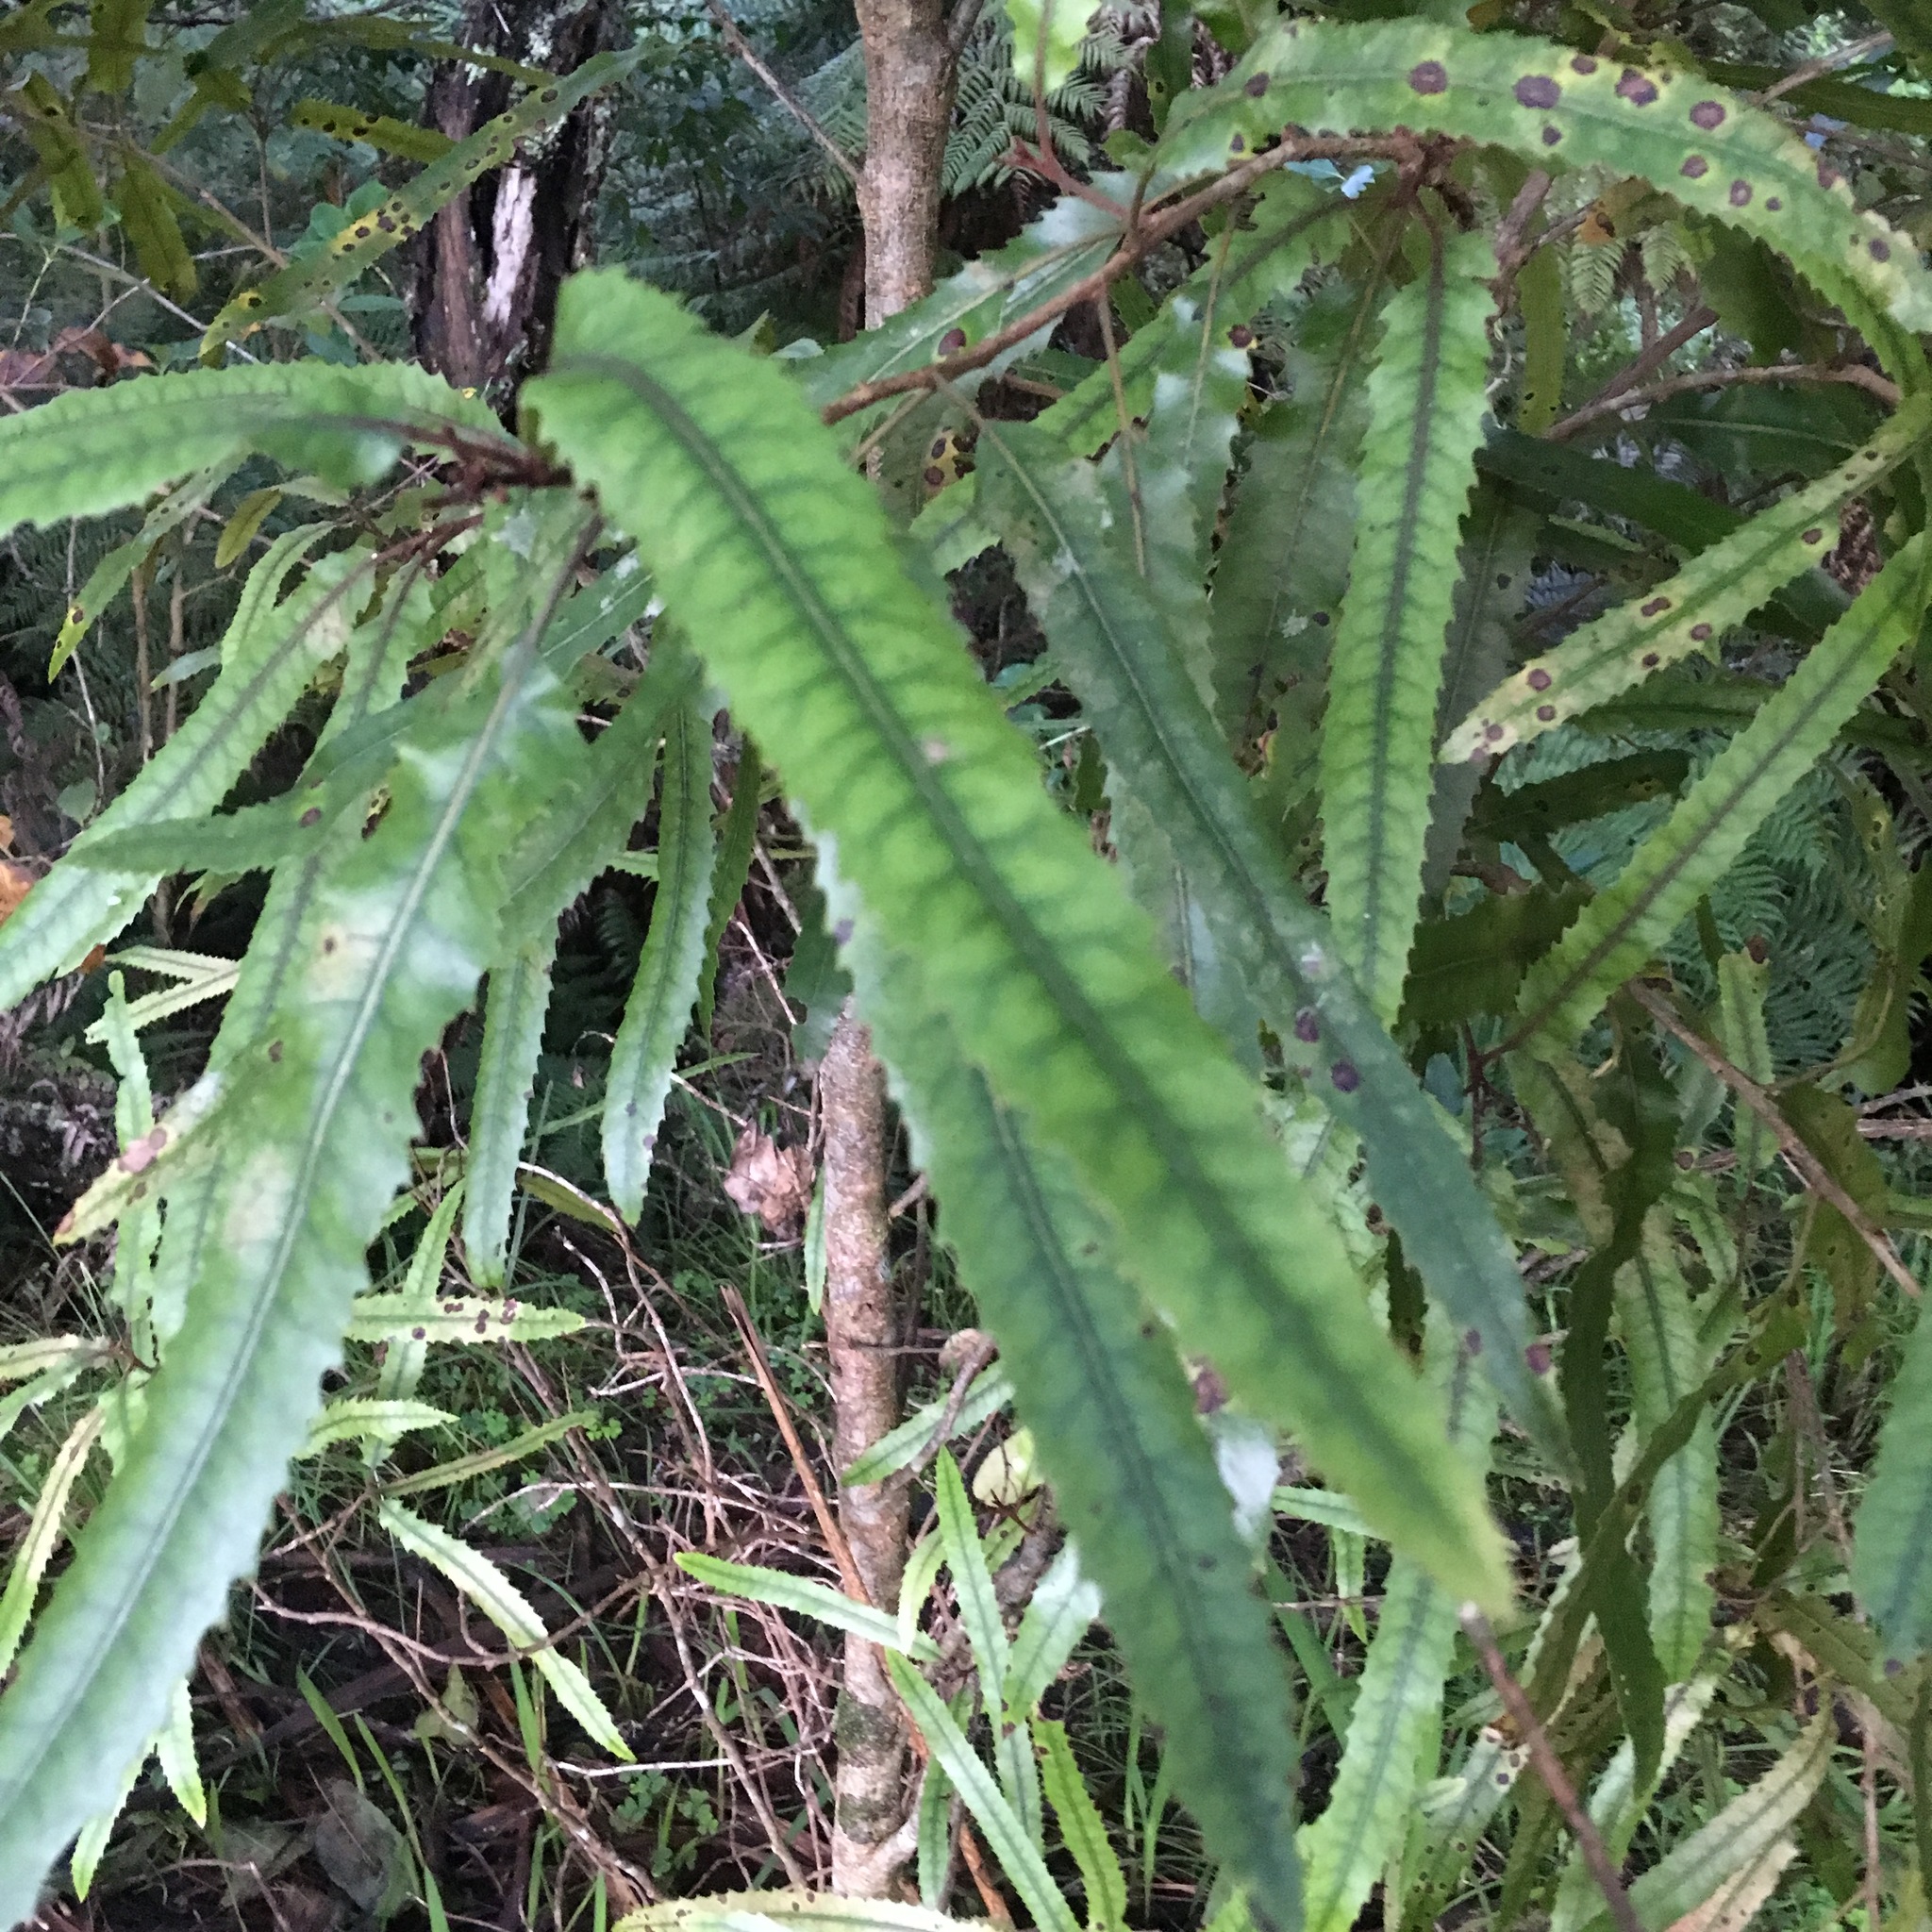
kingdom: Plantae
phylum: Tracheophyta
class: Magnoliopsida
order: Proteales
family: Proteaceae
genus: Knightia
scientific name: Knightia excelsa
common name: New zealand-honeysuckle
